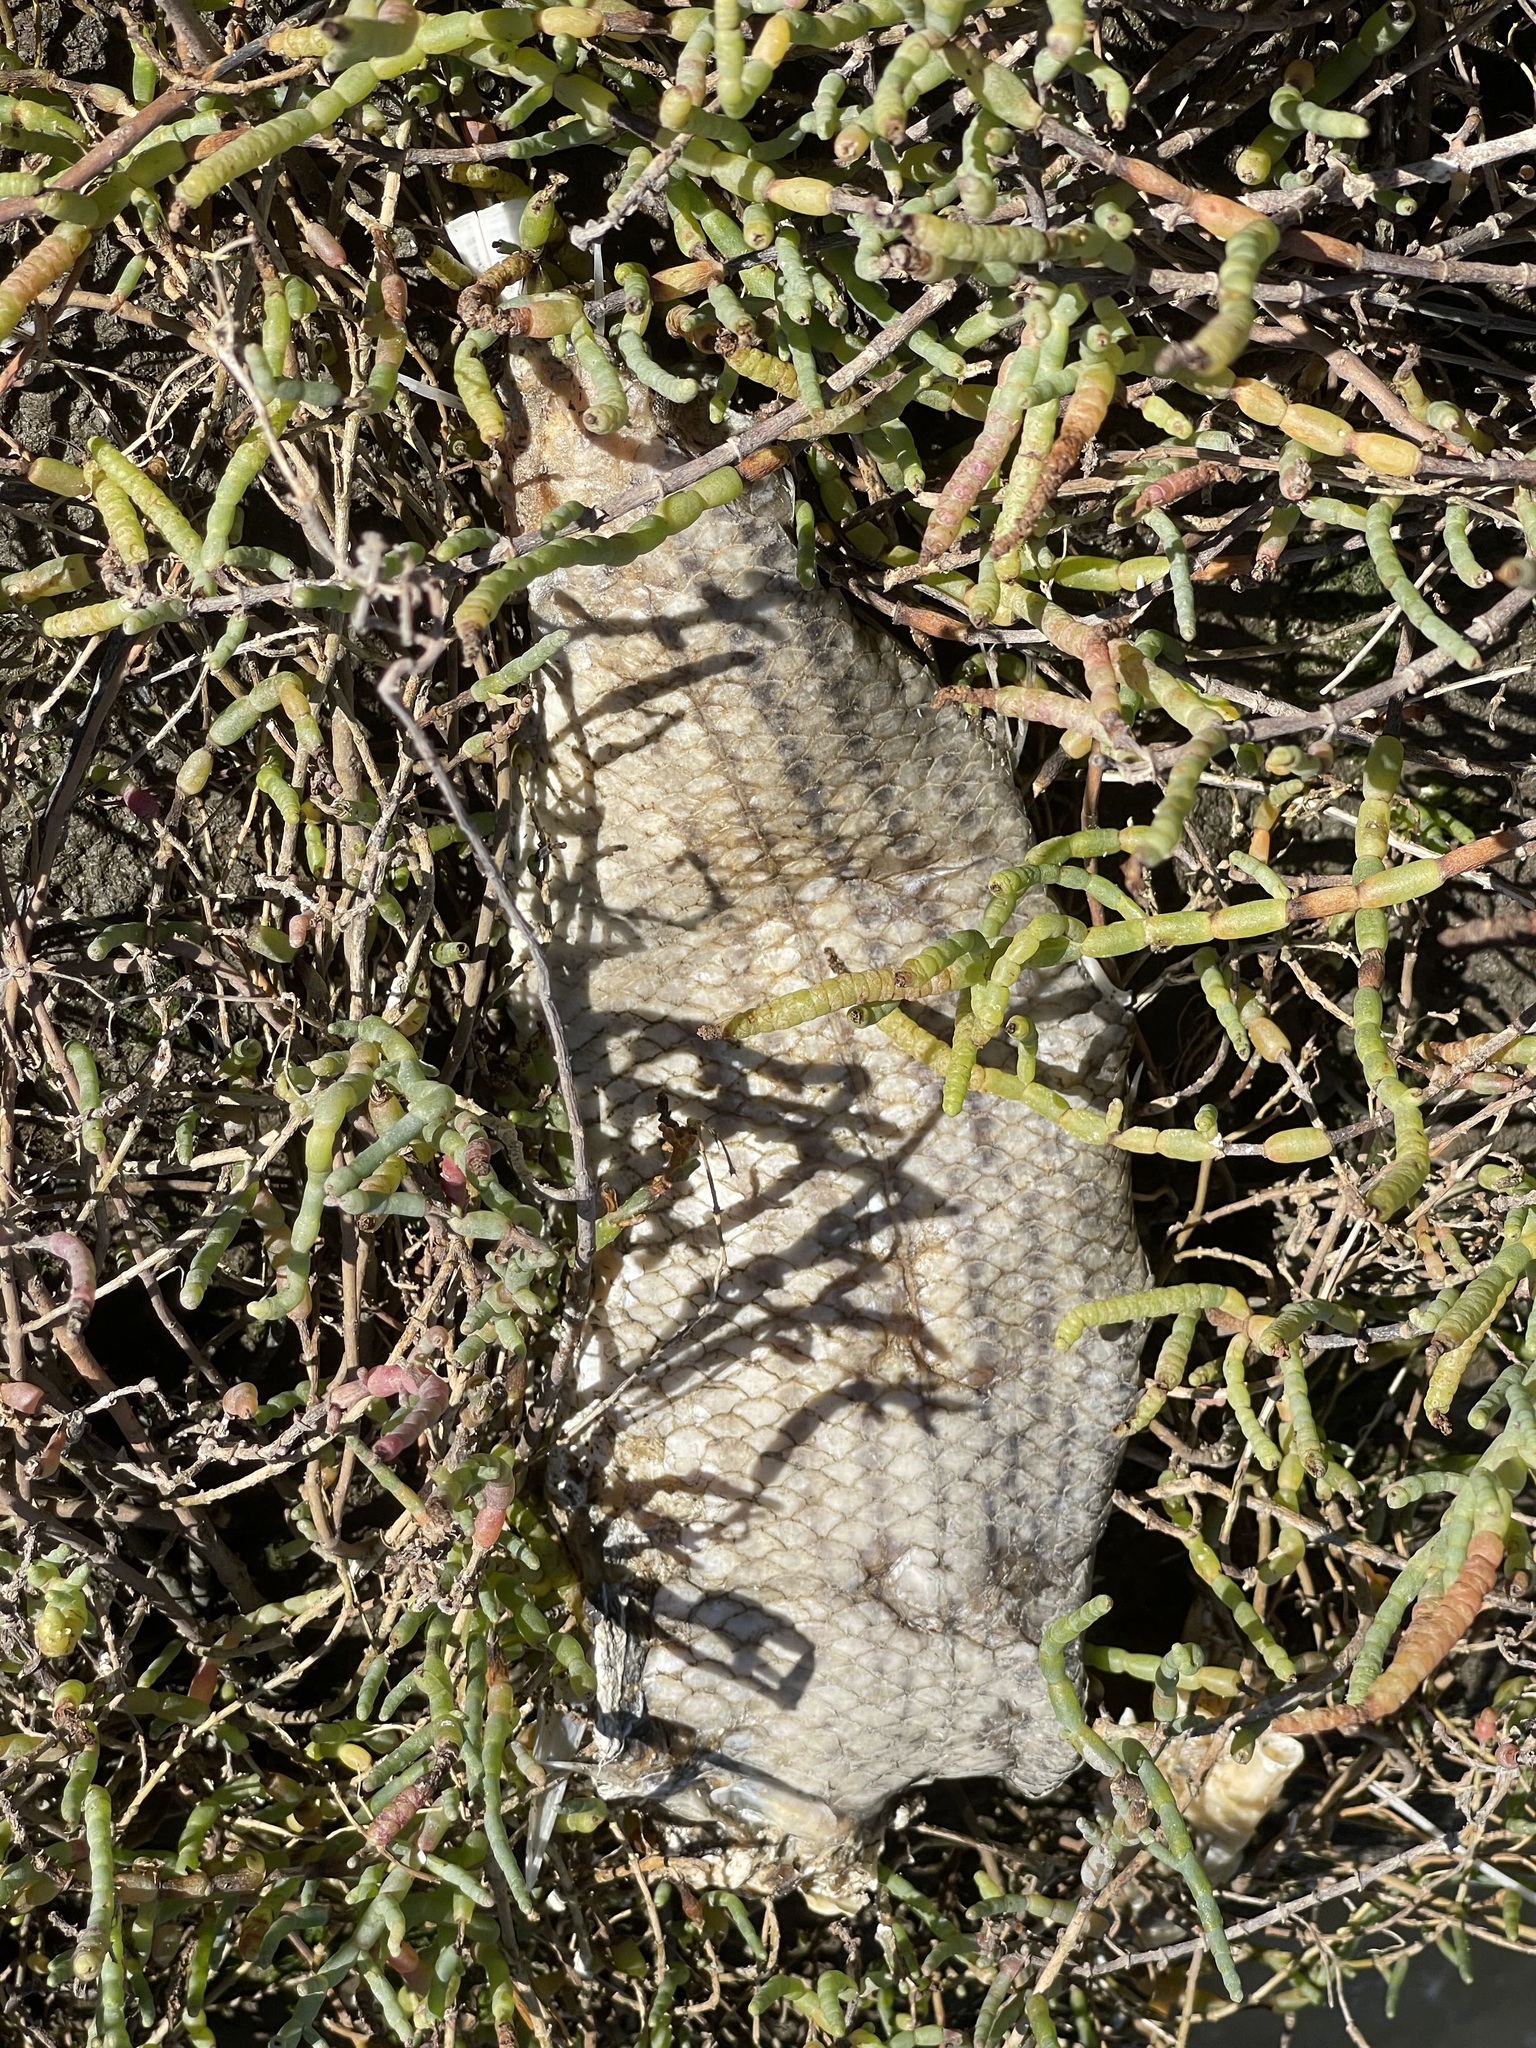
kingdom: Animalia
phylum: Chordata
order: Perciformes
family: Moronidae
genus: Morone
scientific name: Morone saxatilis
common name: Striped bass
